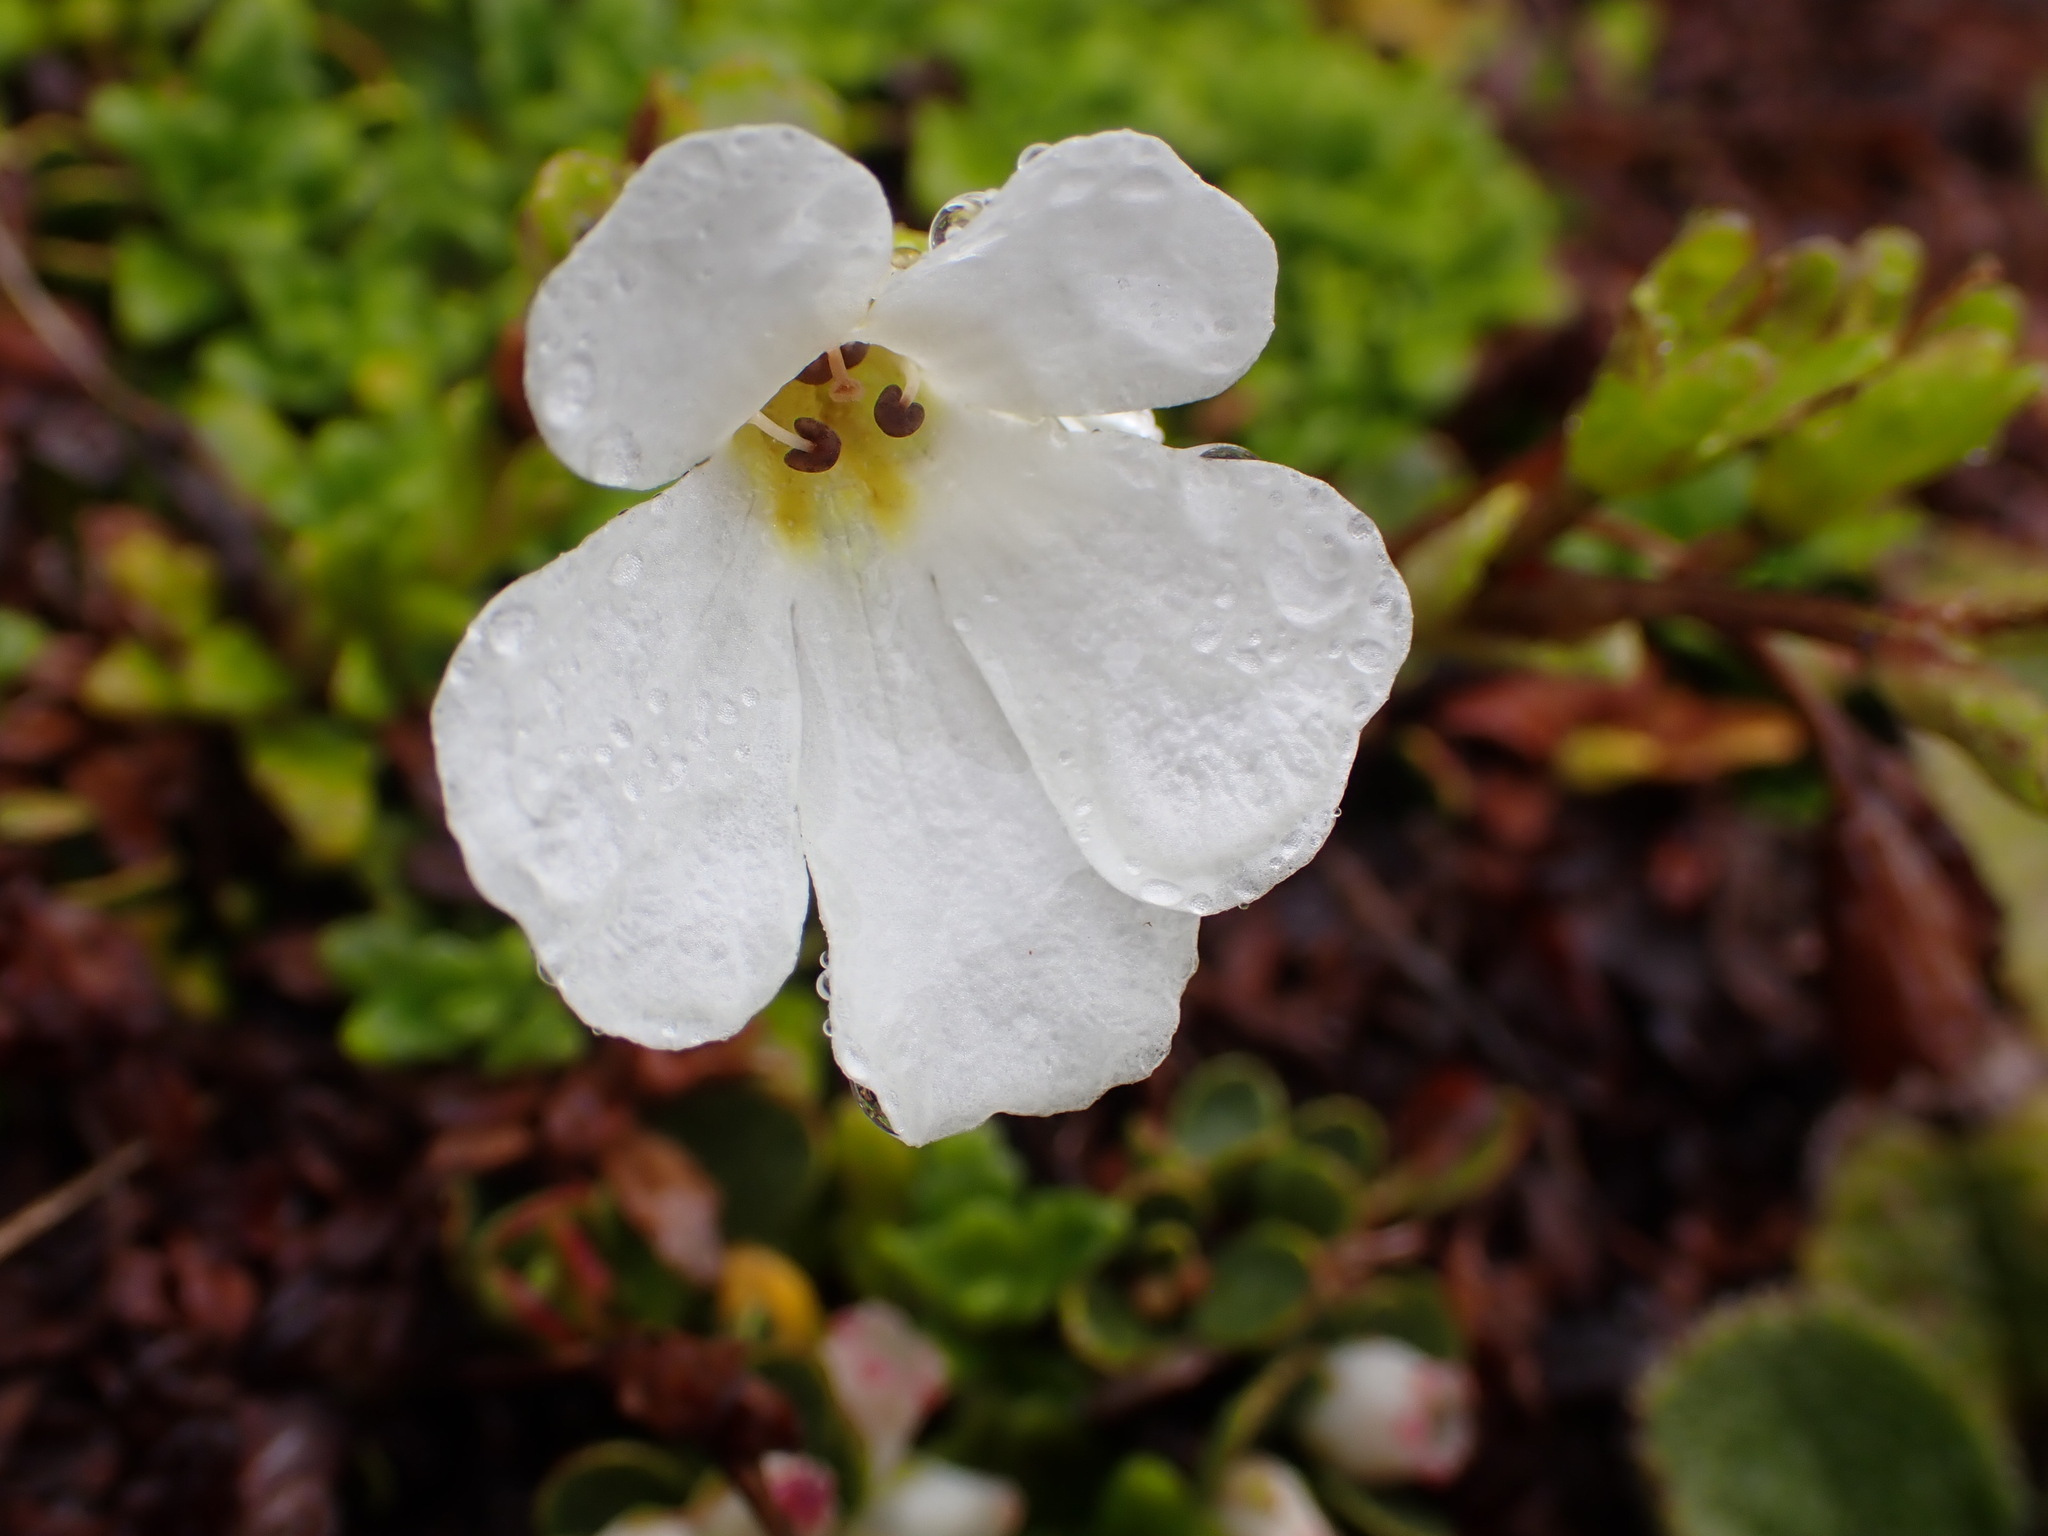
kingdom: Plantae
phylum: Tracheophyta
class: Magnoliopsida
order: Lamiales
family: Plantaginaceae
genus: Ourisia
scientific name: Ourisia caespitosa
